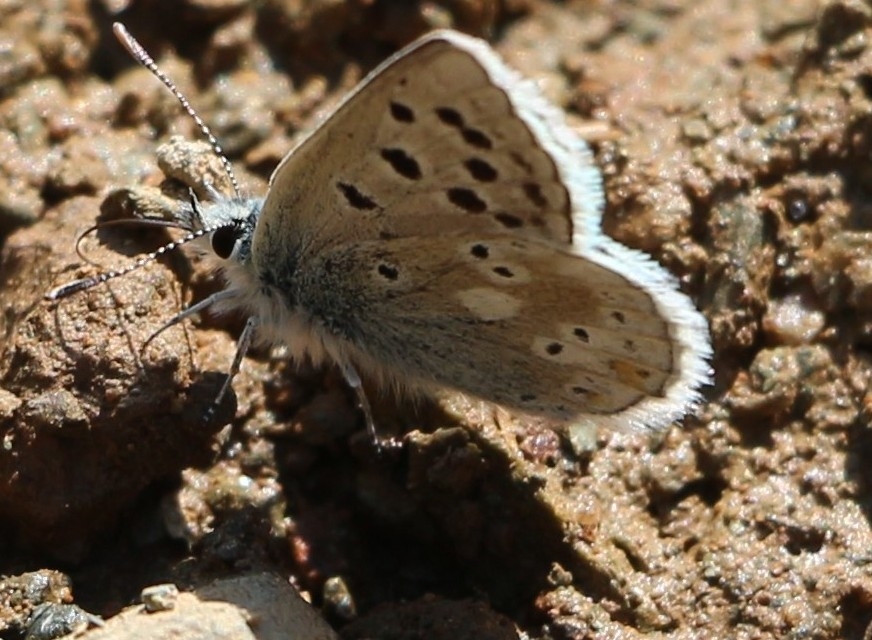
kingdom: Animalia
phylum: Arthropoda
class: Insecta
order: Lepidoptera
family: Lycaenidae
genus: Agriades
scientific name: Agriades pyrenaica
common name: Gavarnie blue
